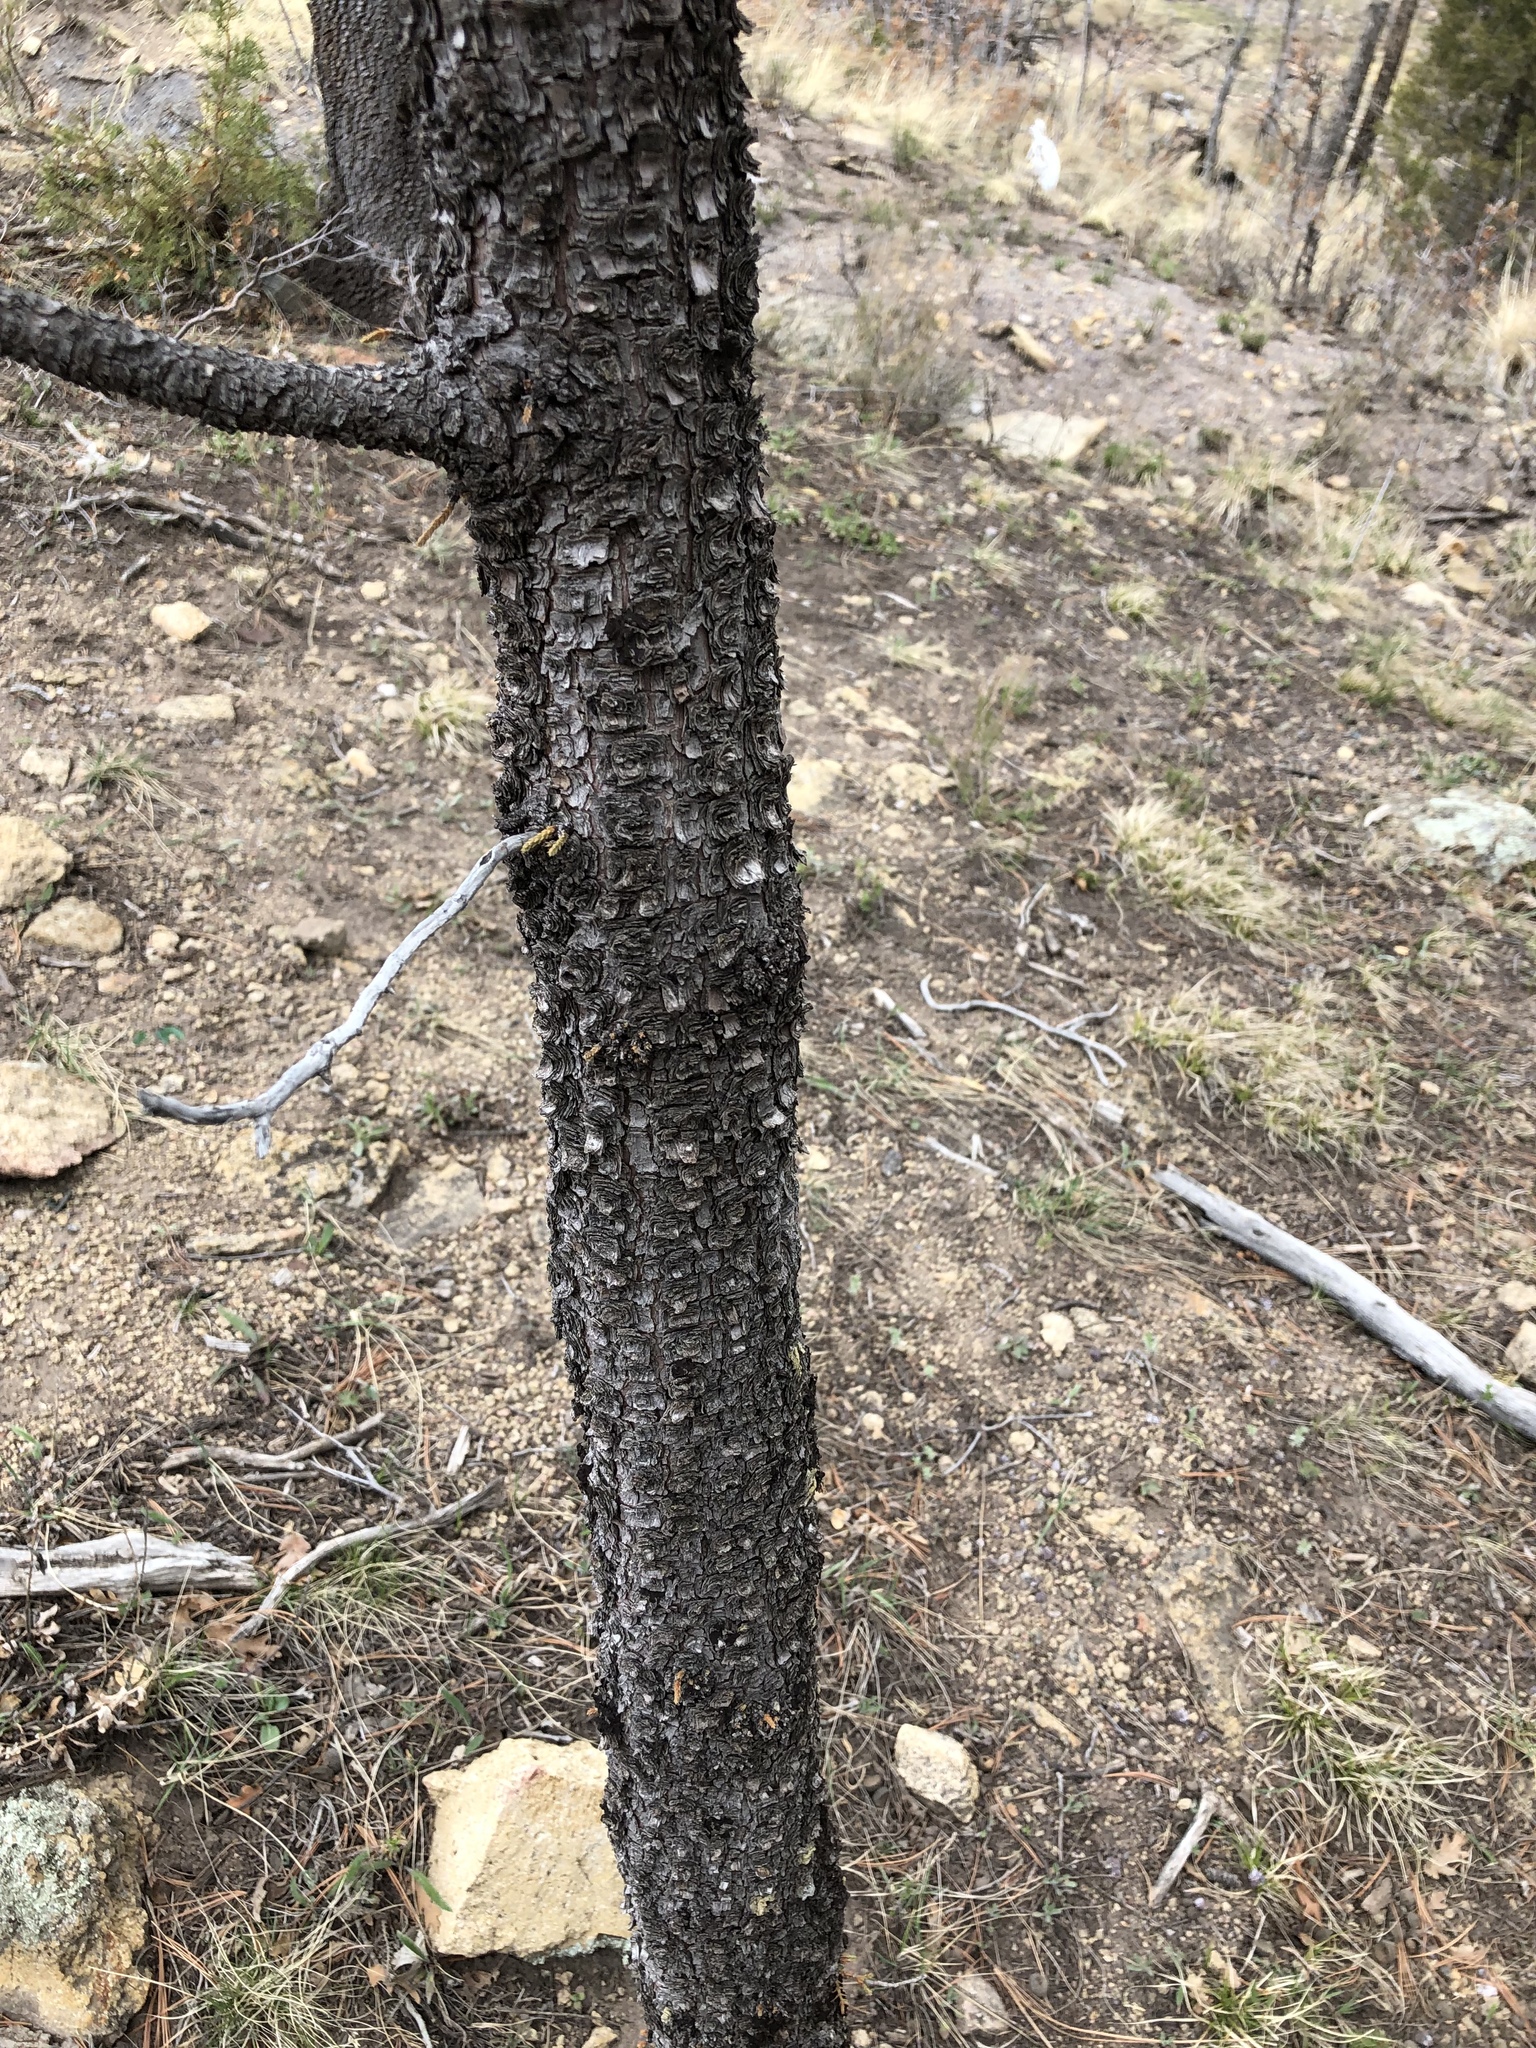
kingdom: Plantae
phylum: Tracheophyta
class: Pinopsida
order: Pinales
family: Cupressaceae
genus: Juniperus
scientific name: Juniperus deppeana
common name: Alligator juniper
